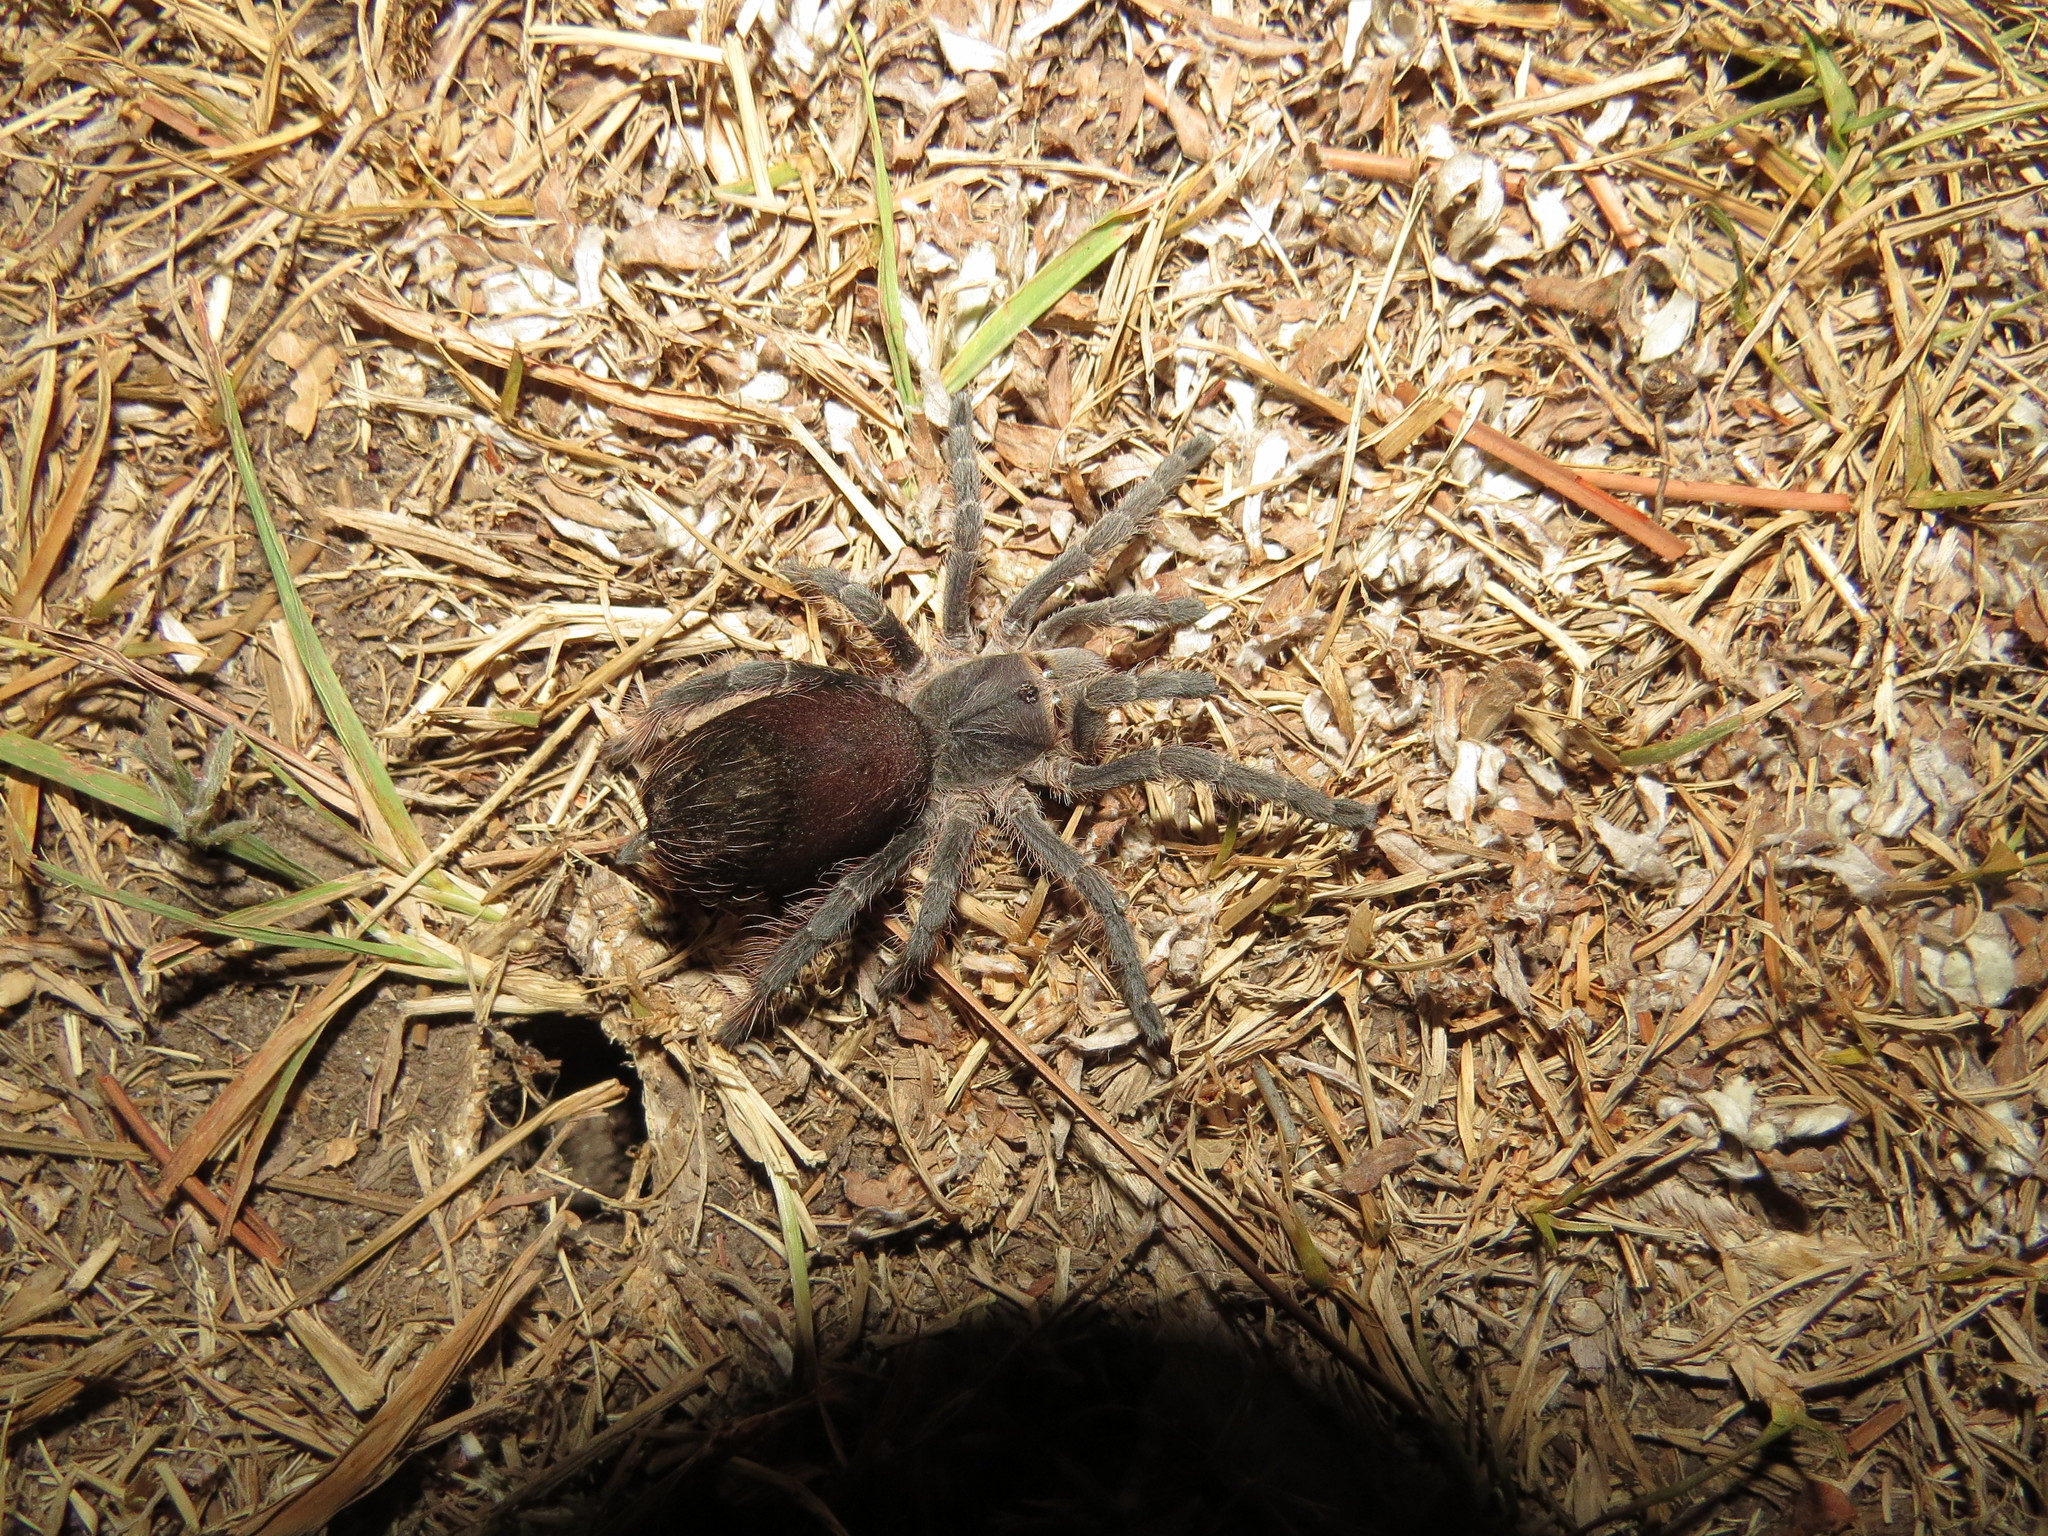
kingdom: Animalia
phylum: Arthropoda
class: Arachnida
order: Araneae
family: Theraphosidae
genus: Eupalaestrus
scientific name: Eupalaestrus weijenberghi
